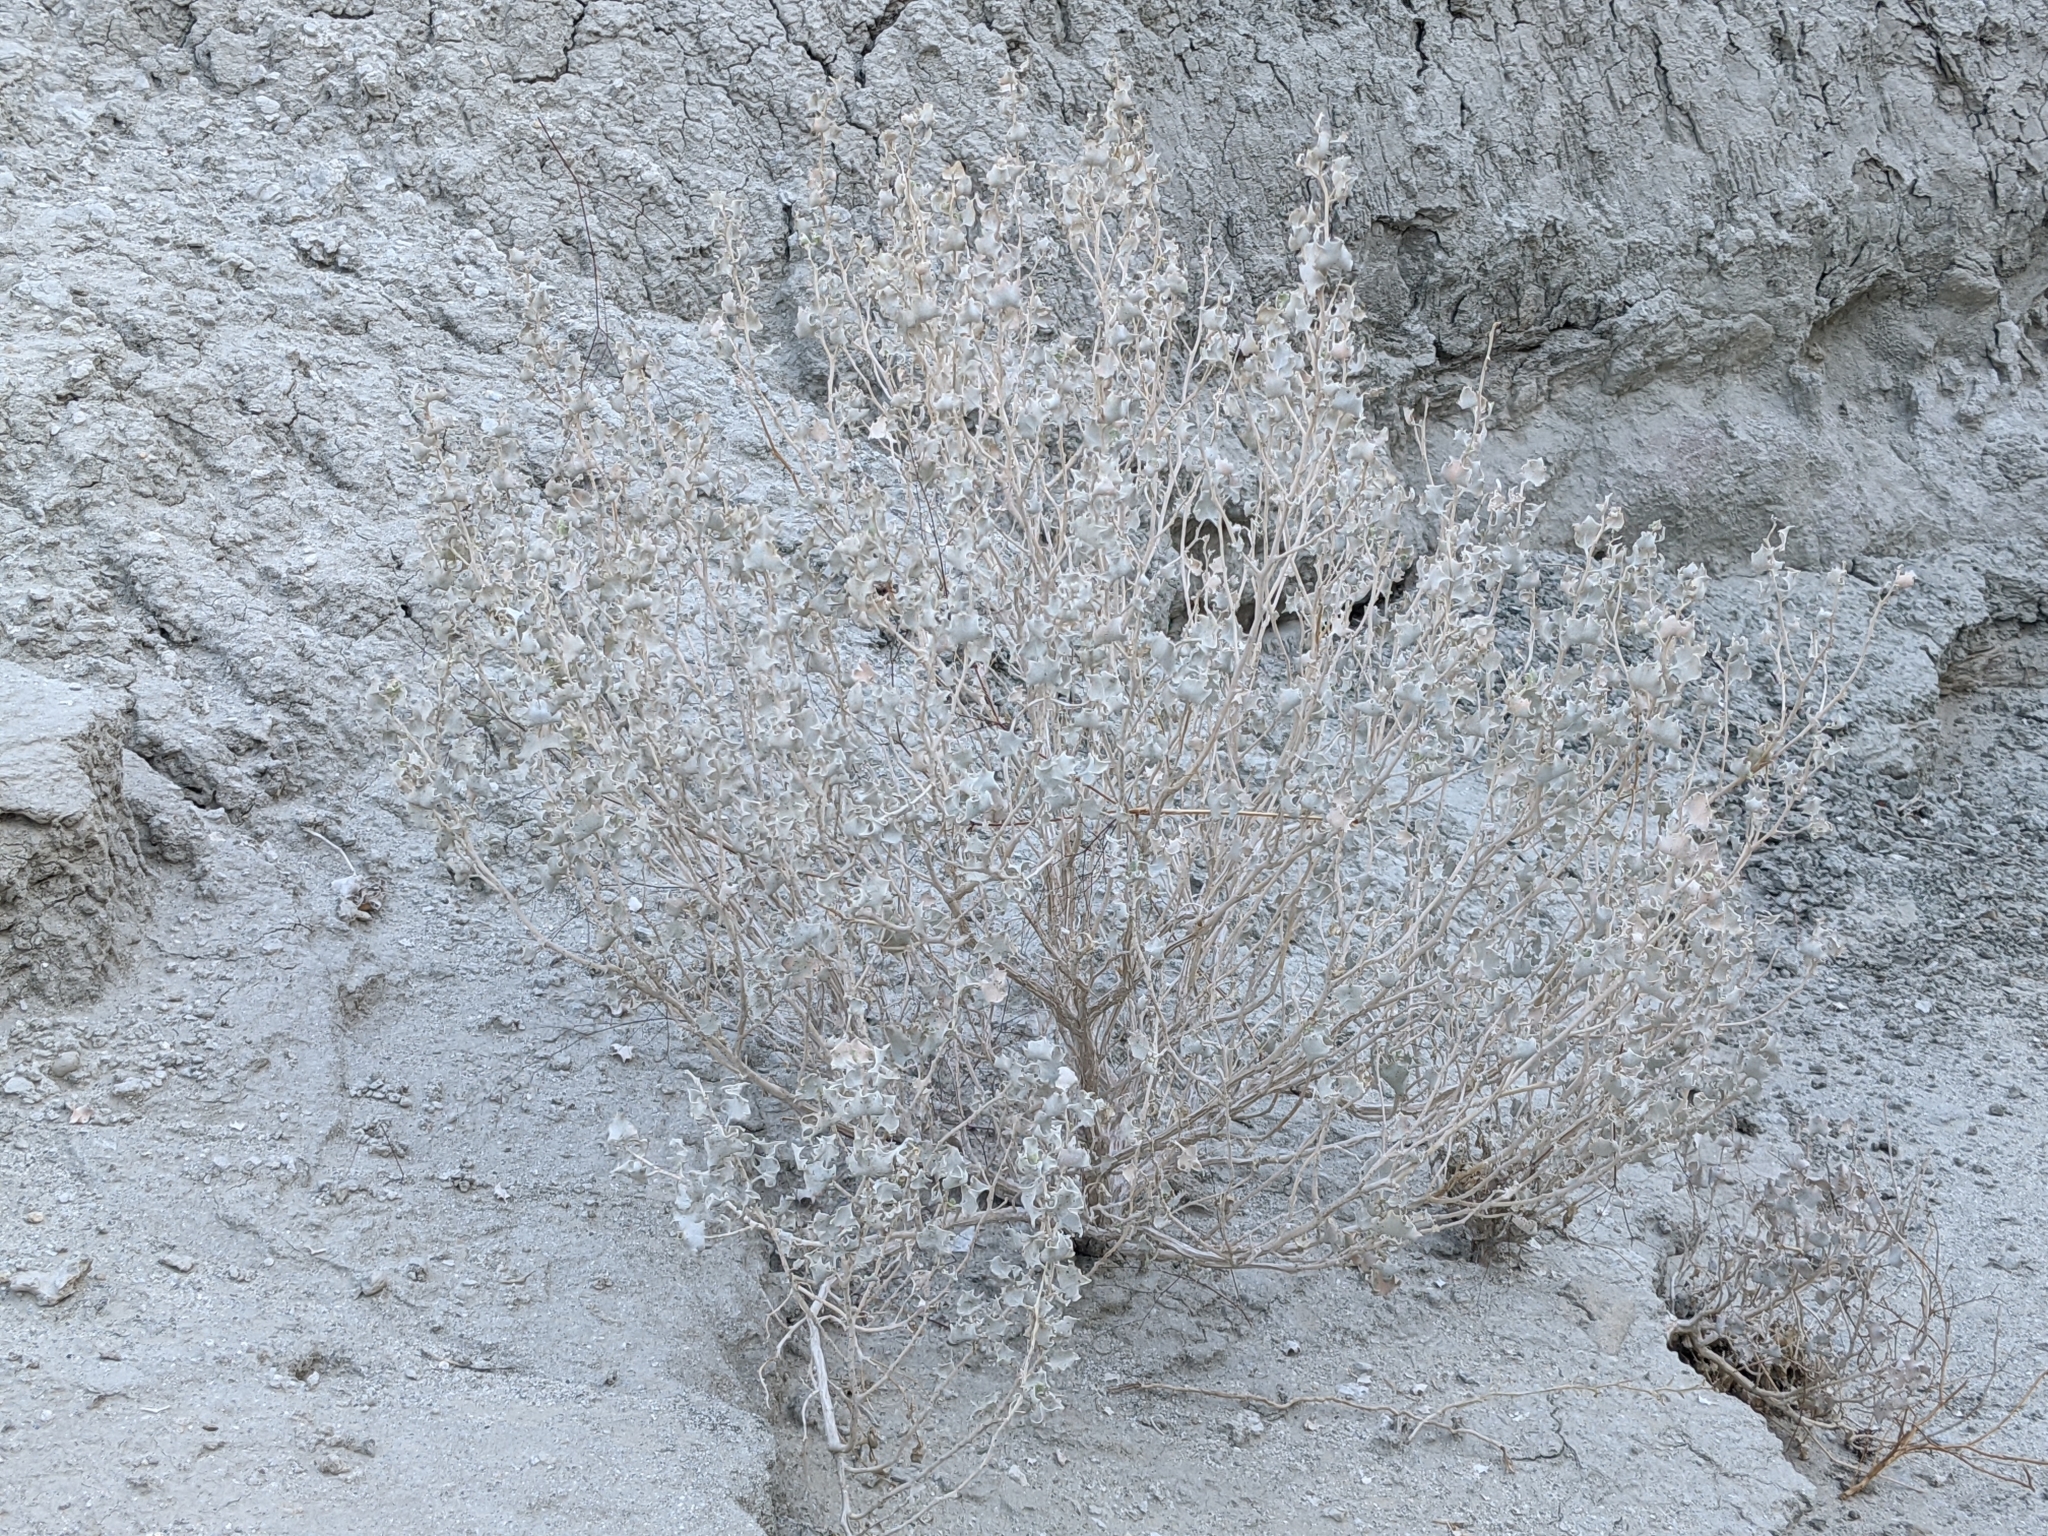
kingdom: Plantae
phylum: Tracheophyta
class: Magnoliopsida
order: Caryophyllales
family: Amaranthaceae
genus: Atriplex
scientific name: Atriplex hymenelytra
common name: Desert-holly
